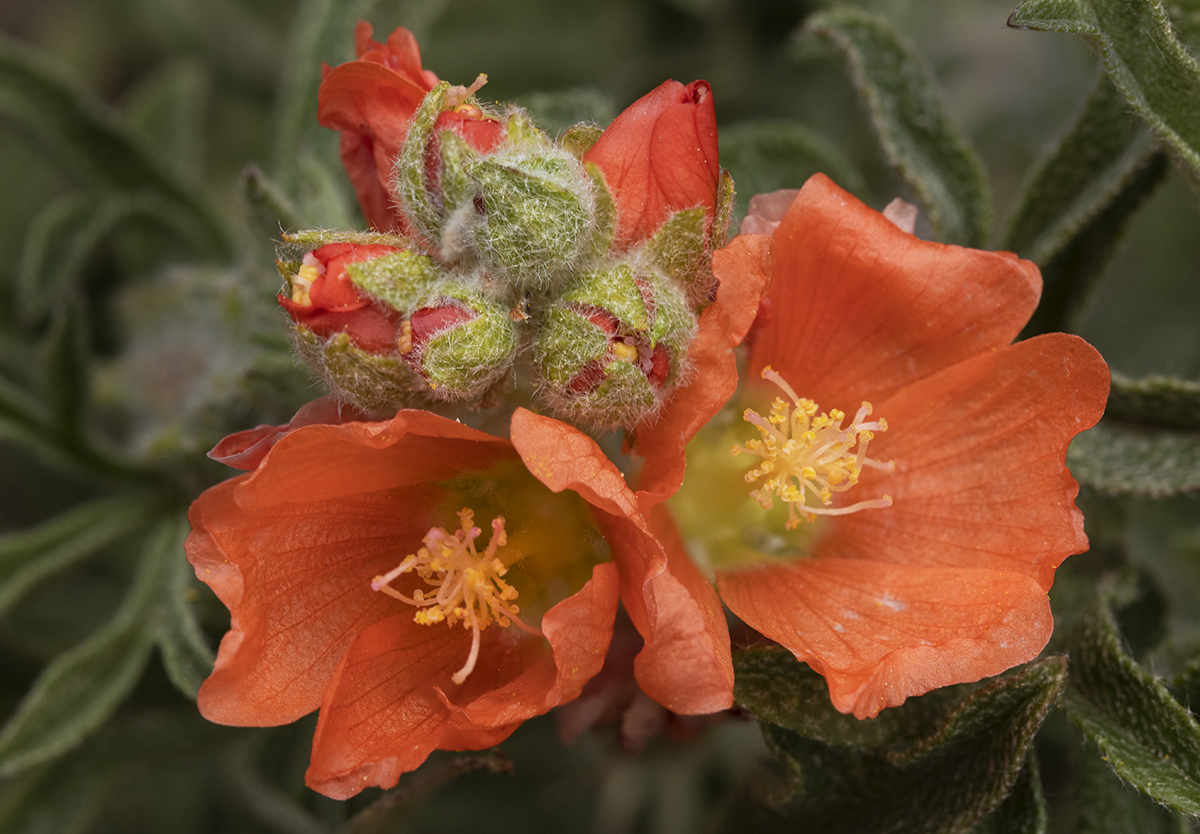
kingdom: Plantae
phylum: Tracheophyta
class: Magnoliopsida
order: Malvales
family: Malvaceae
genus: Sphaeralcea
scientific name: Sphaeralcea coccinea
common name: Moss-rose
